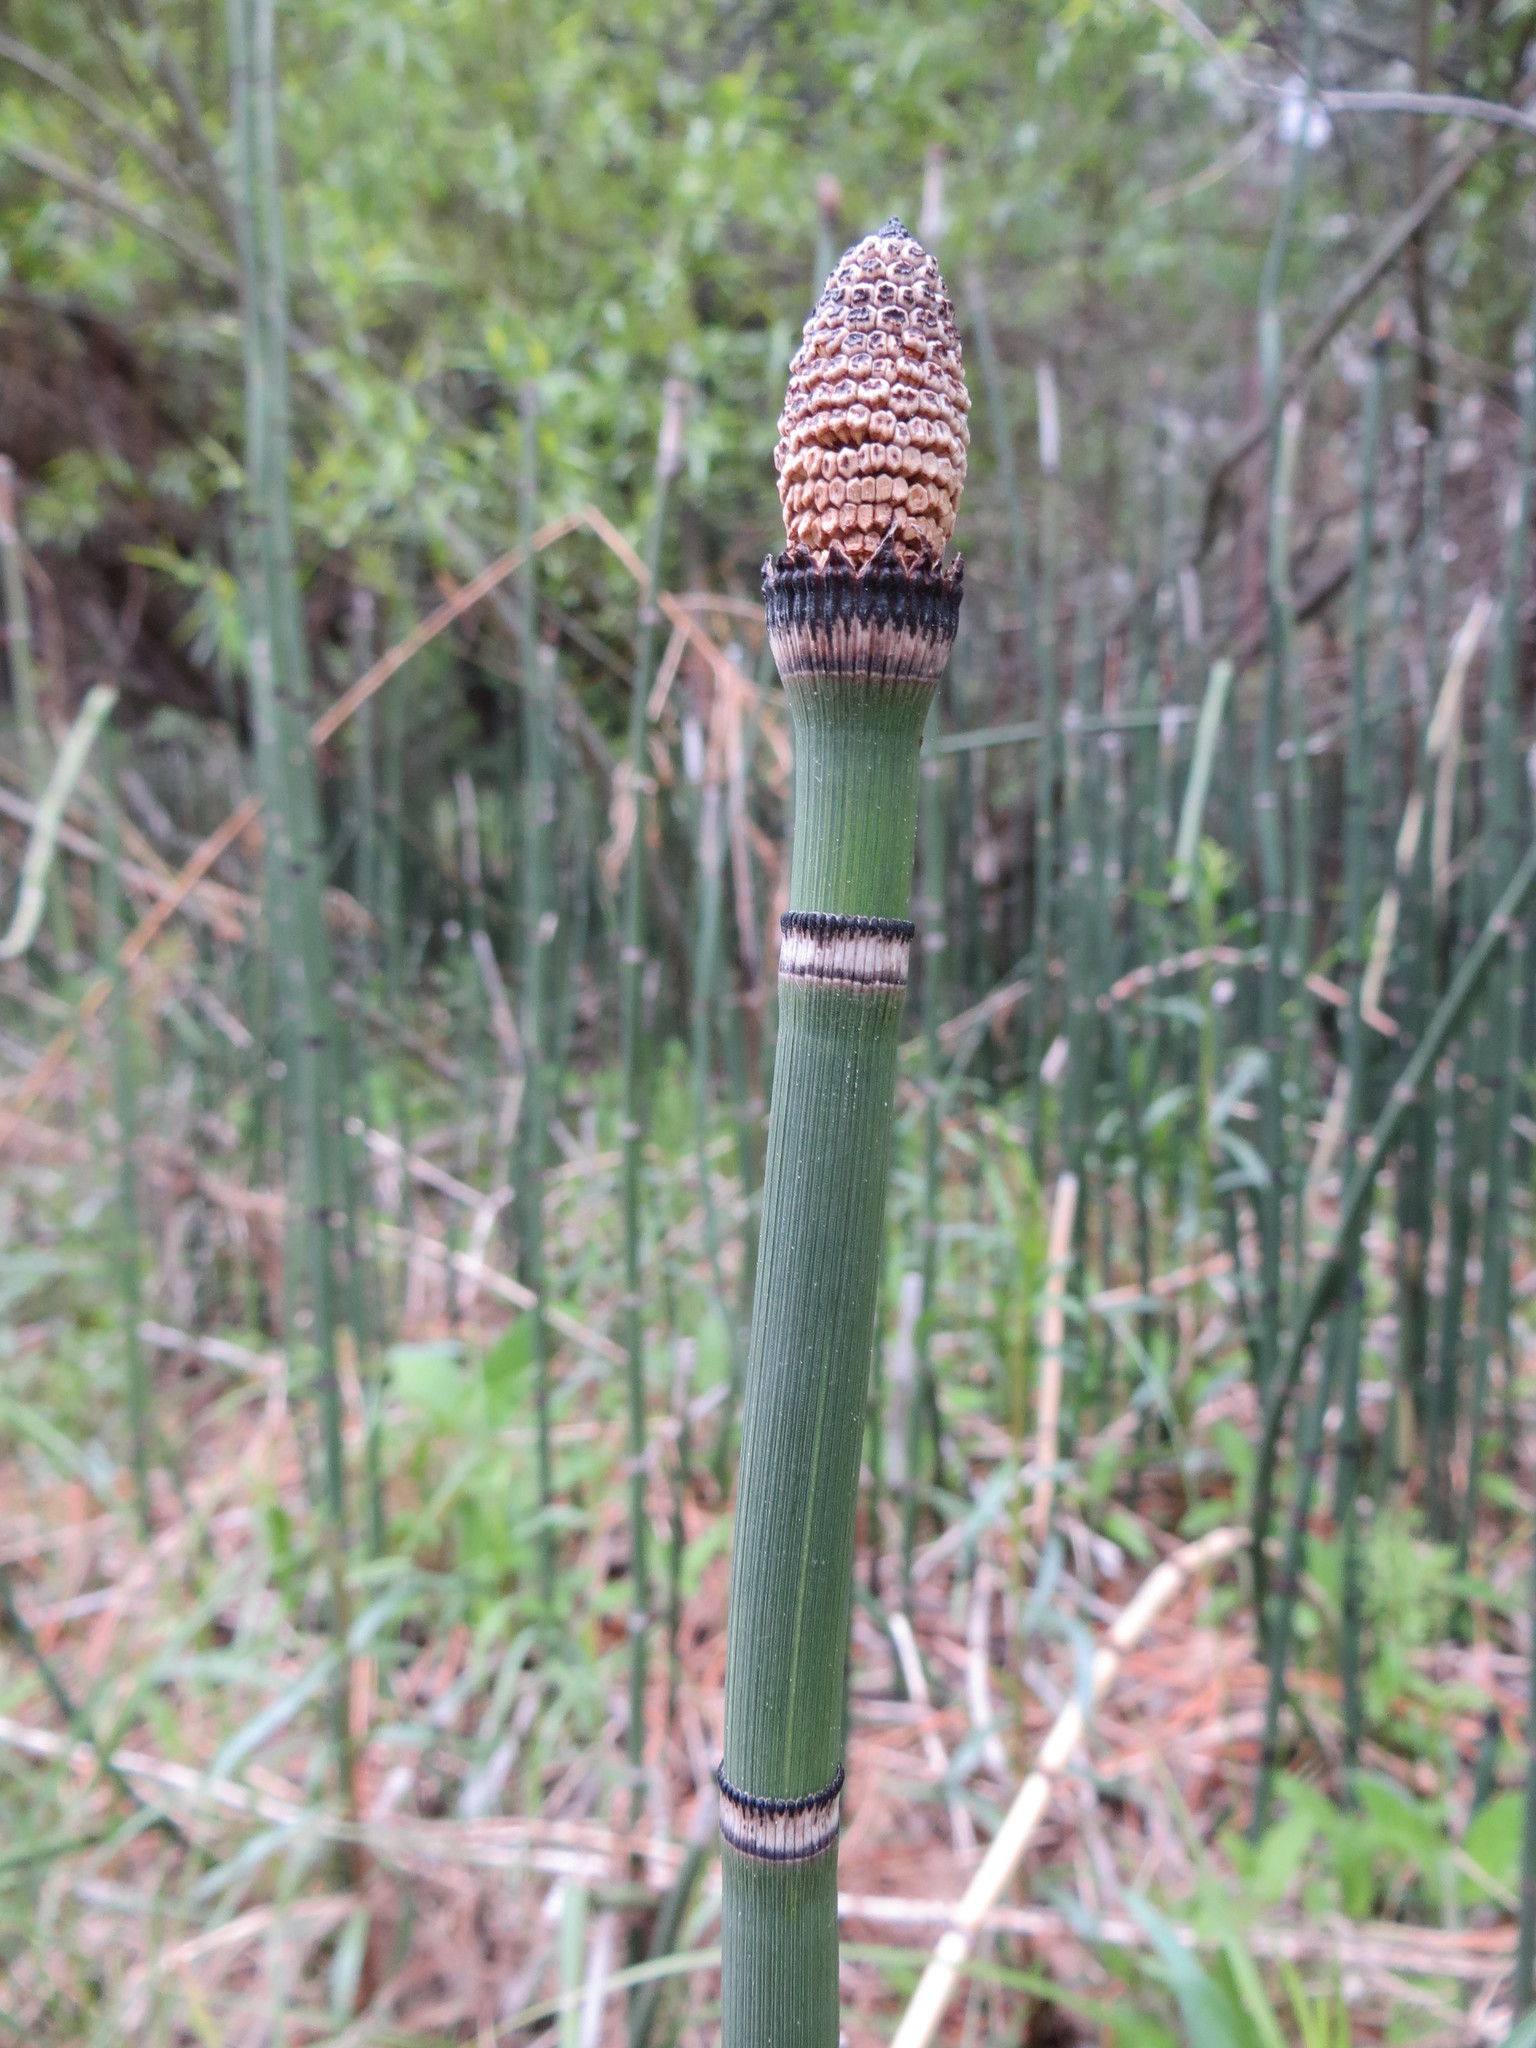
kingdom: Plantae
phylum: Tracheophyta
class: Polypodiopsida
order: Equisetales
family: Equisetaceae
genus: Equisetum
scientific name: Equisetum praealtum
